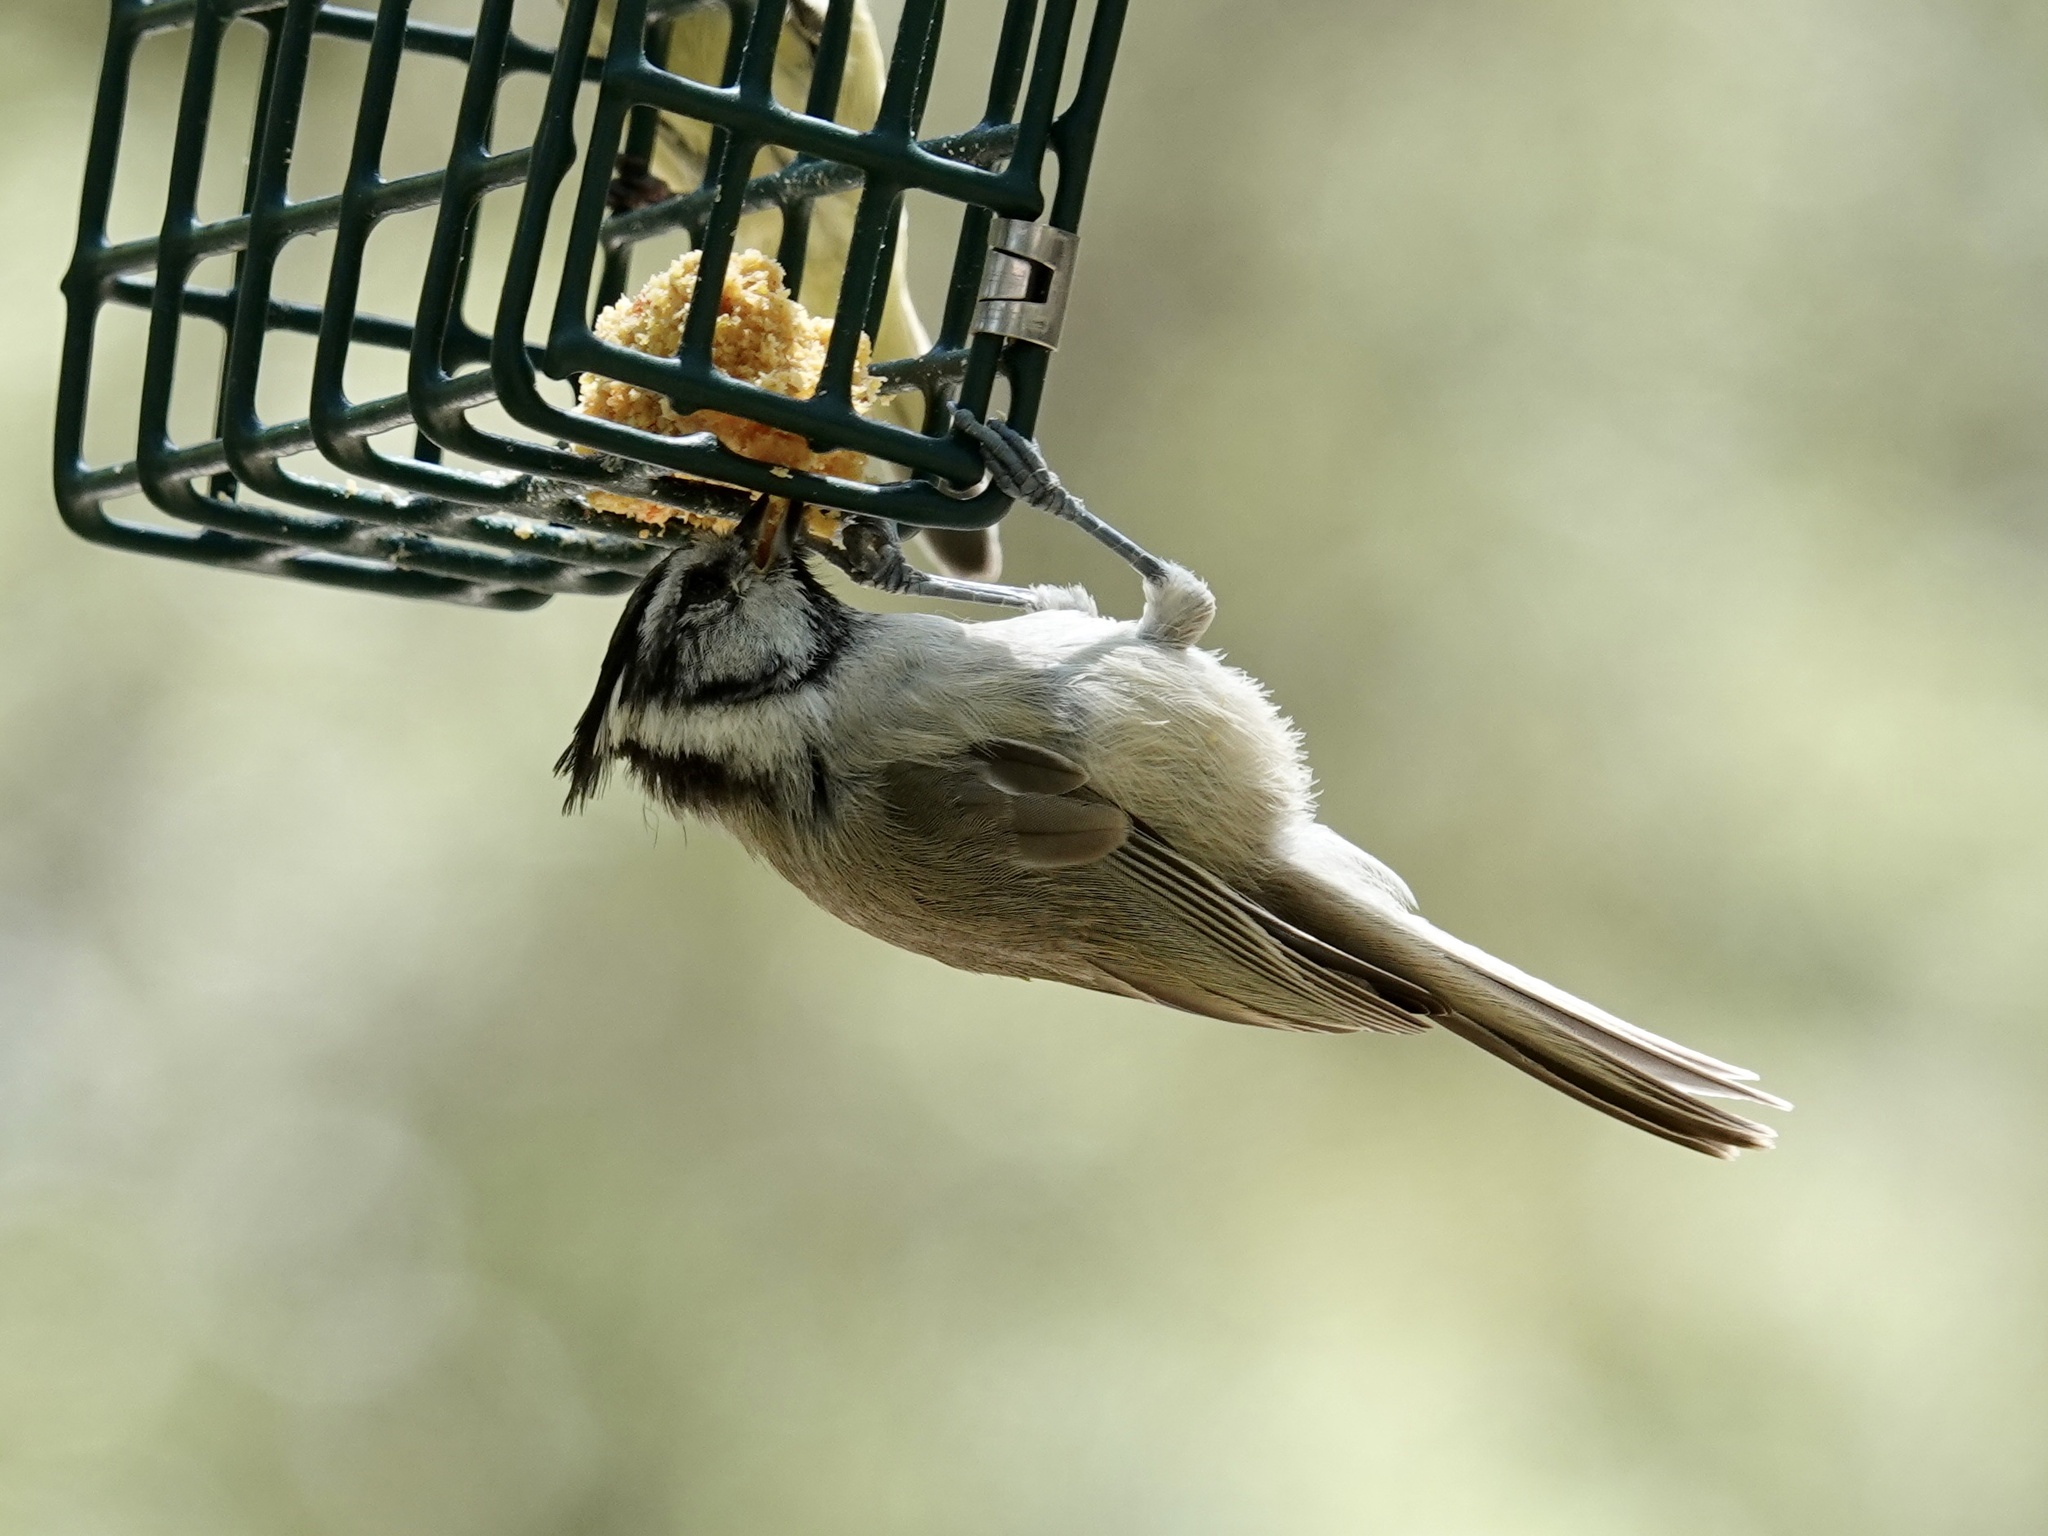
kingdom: Animalia
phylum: Chordata
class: Aves
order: Passeriformes
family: Paridae
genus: Baeolophus
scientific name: Baeolophus wollweberi
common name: Bridled titmouse
